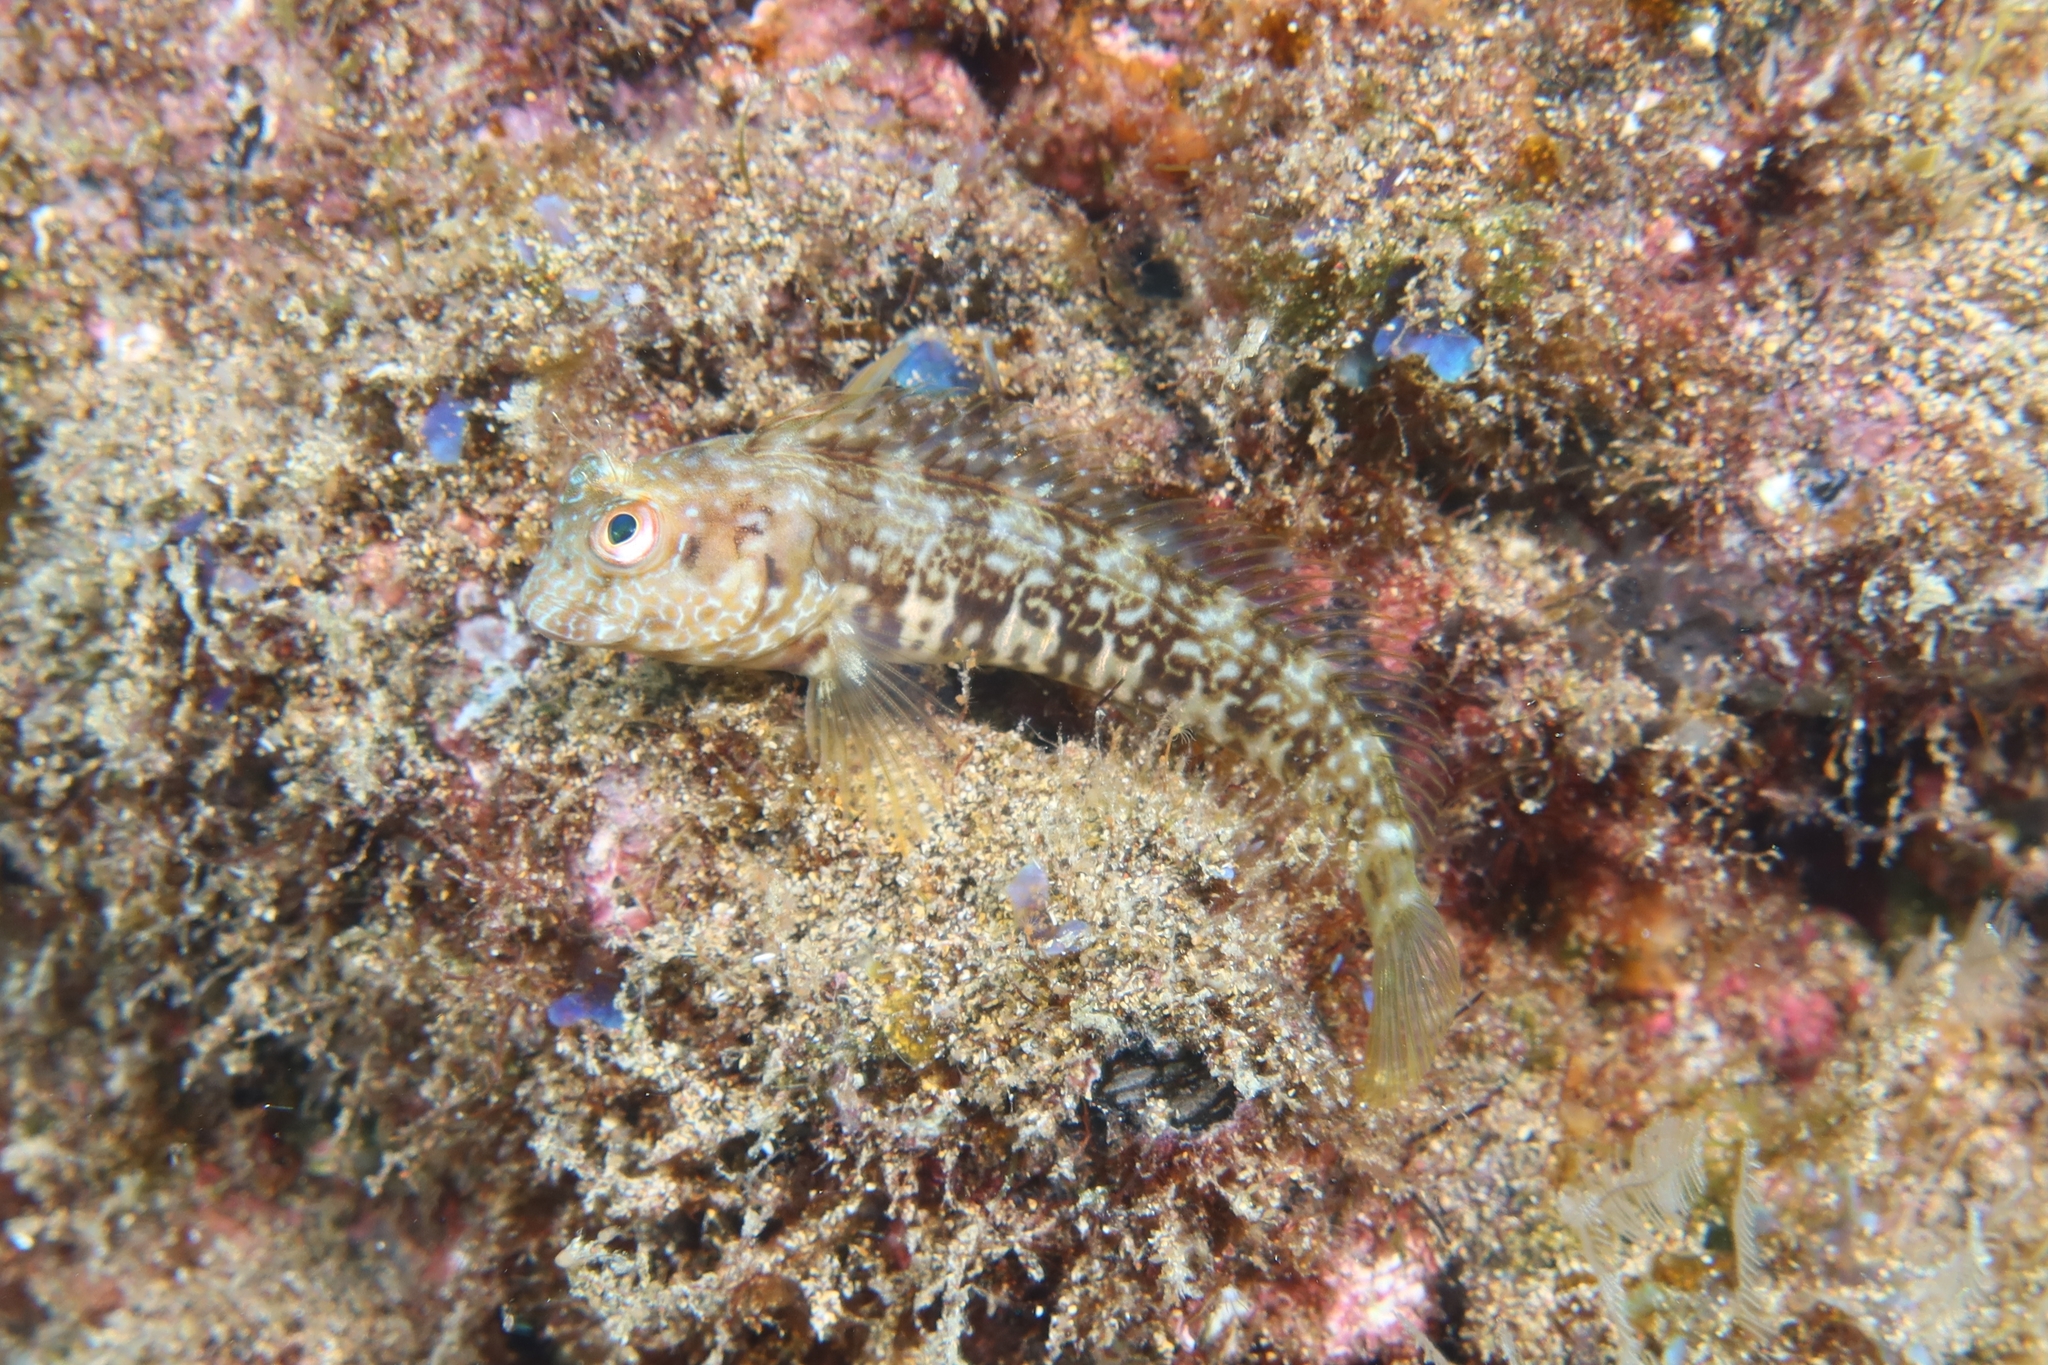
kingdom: Animalia
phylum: Chordata
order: Perciformes
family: Blenniidae
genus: Parablennius
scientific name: Parablennius goreensis
